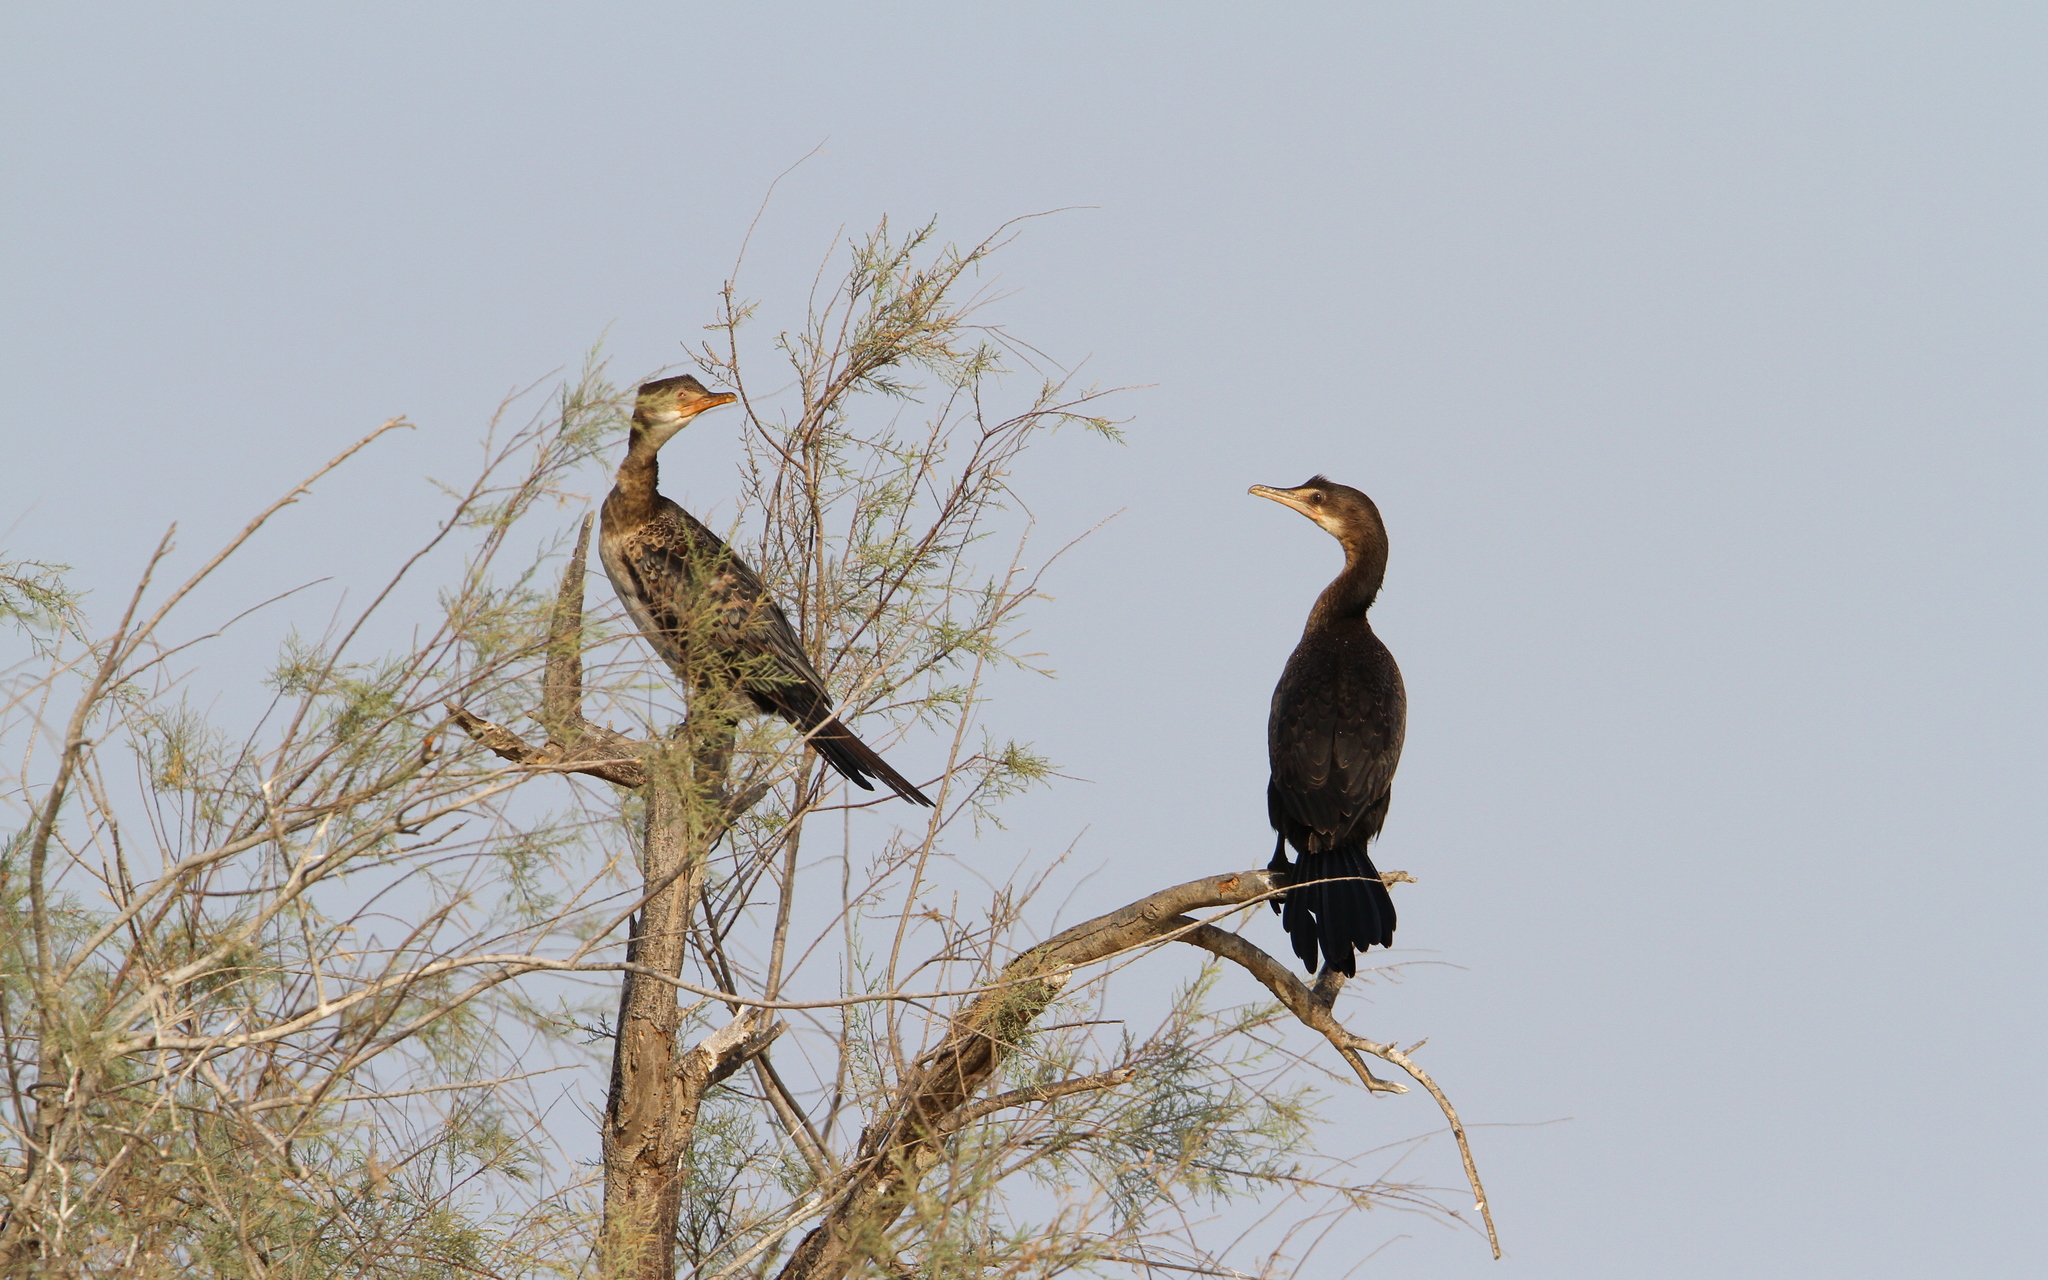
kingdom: Animalia
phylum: Chordata
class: Aves
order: Suliformes
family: Phalacrocoracidae
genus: Microcarbo
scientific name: Microcarbo africanus
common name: Long-tailed cormorant
